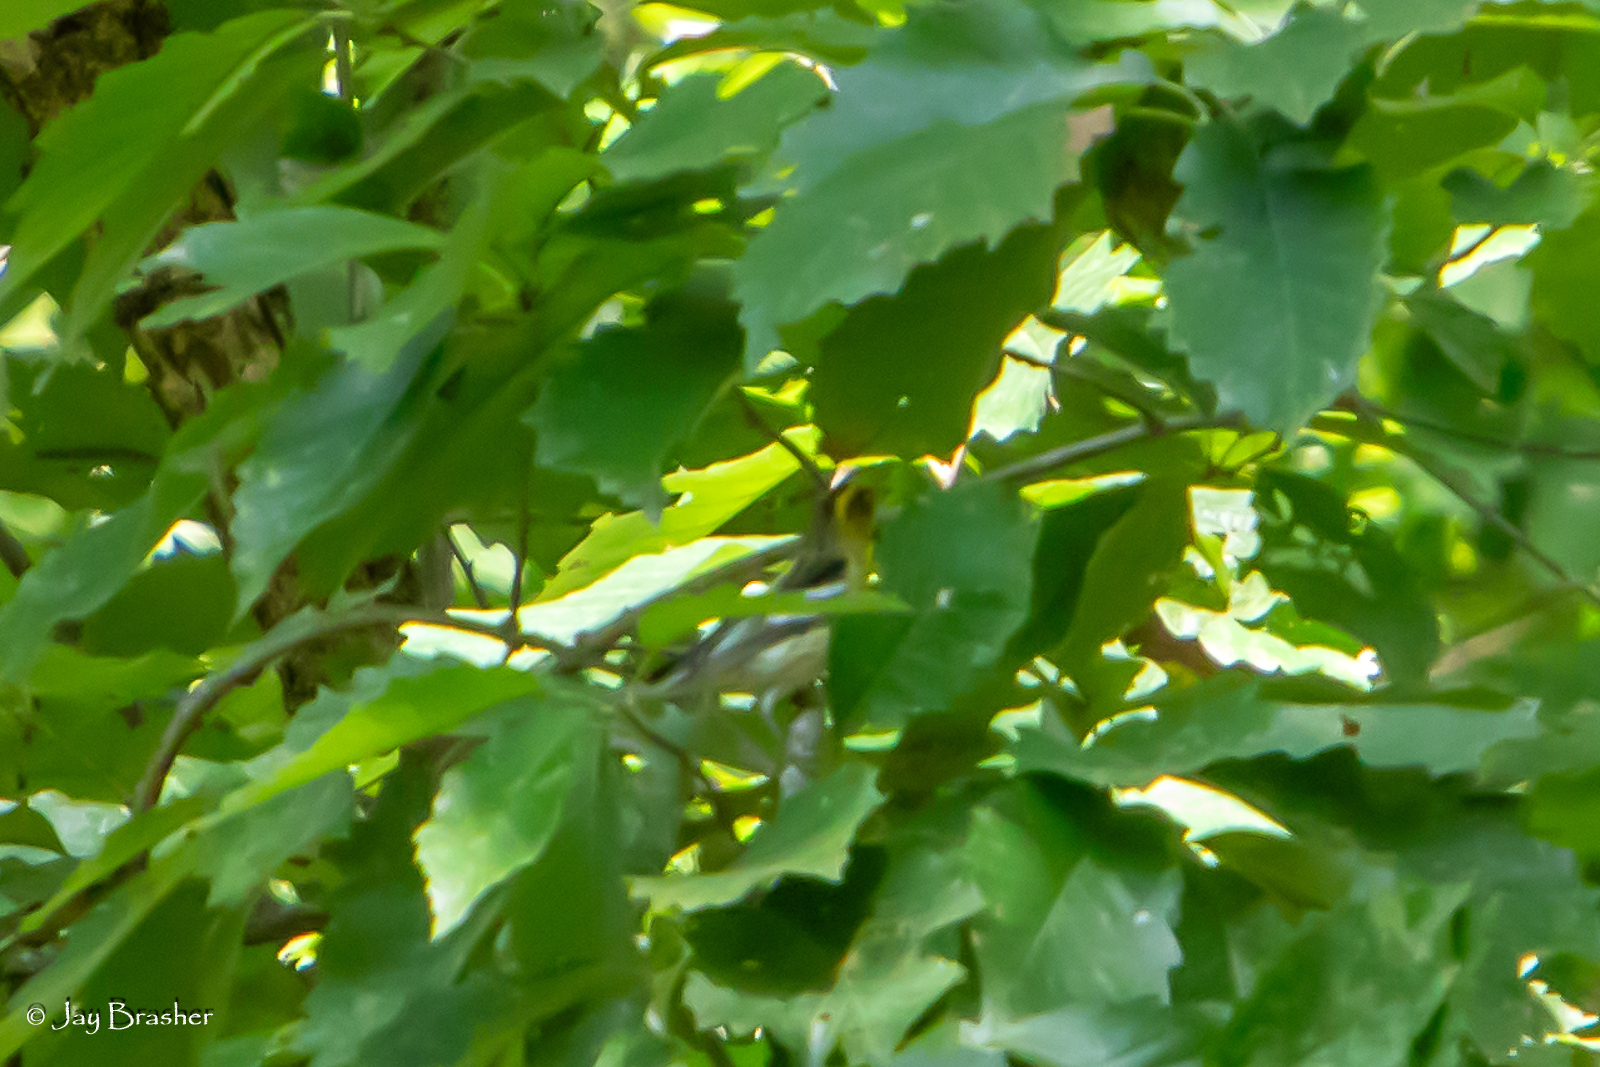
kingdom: Animalia
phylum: Chordata
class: Aves
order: Passeriformes
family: Parulidae
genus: Setophaga
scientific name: Setophaga fusca
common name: Blackburnian warbler
